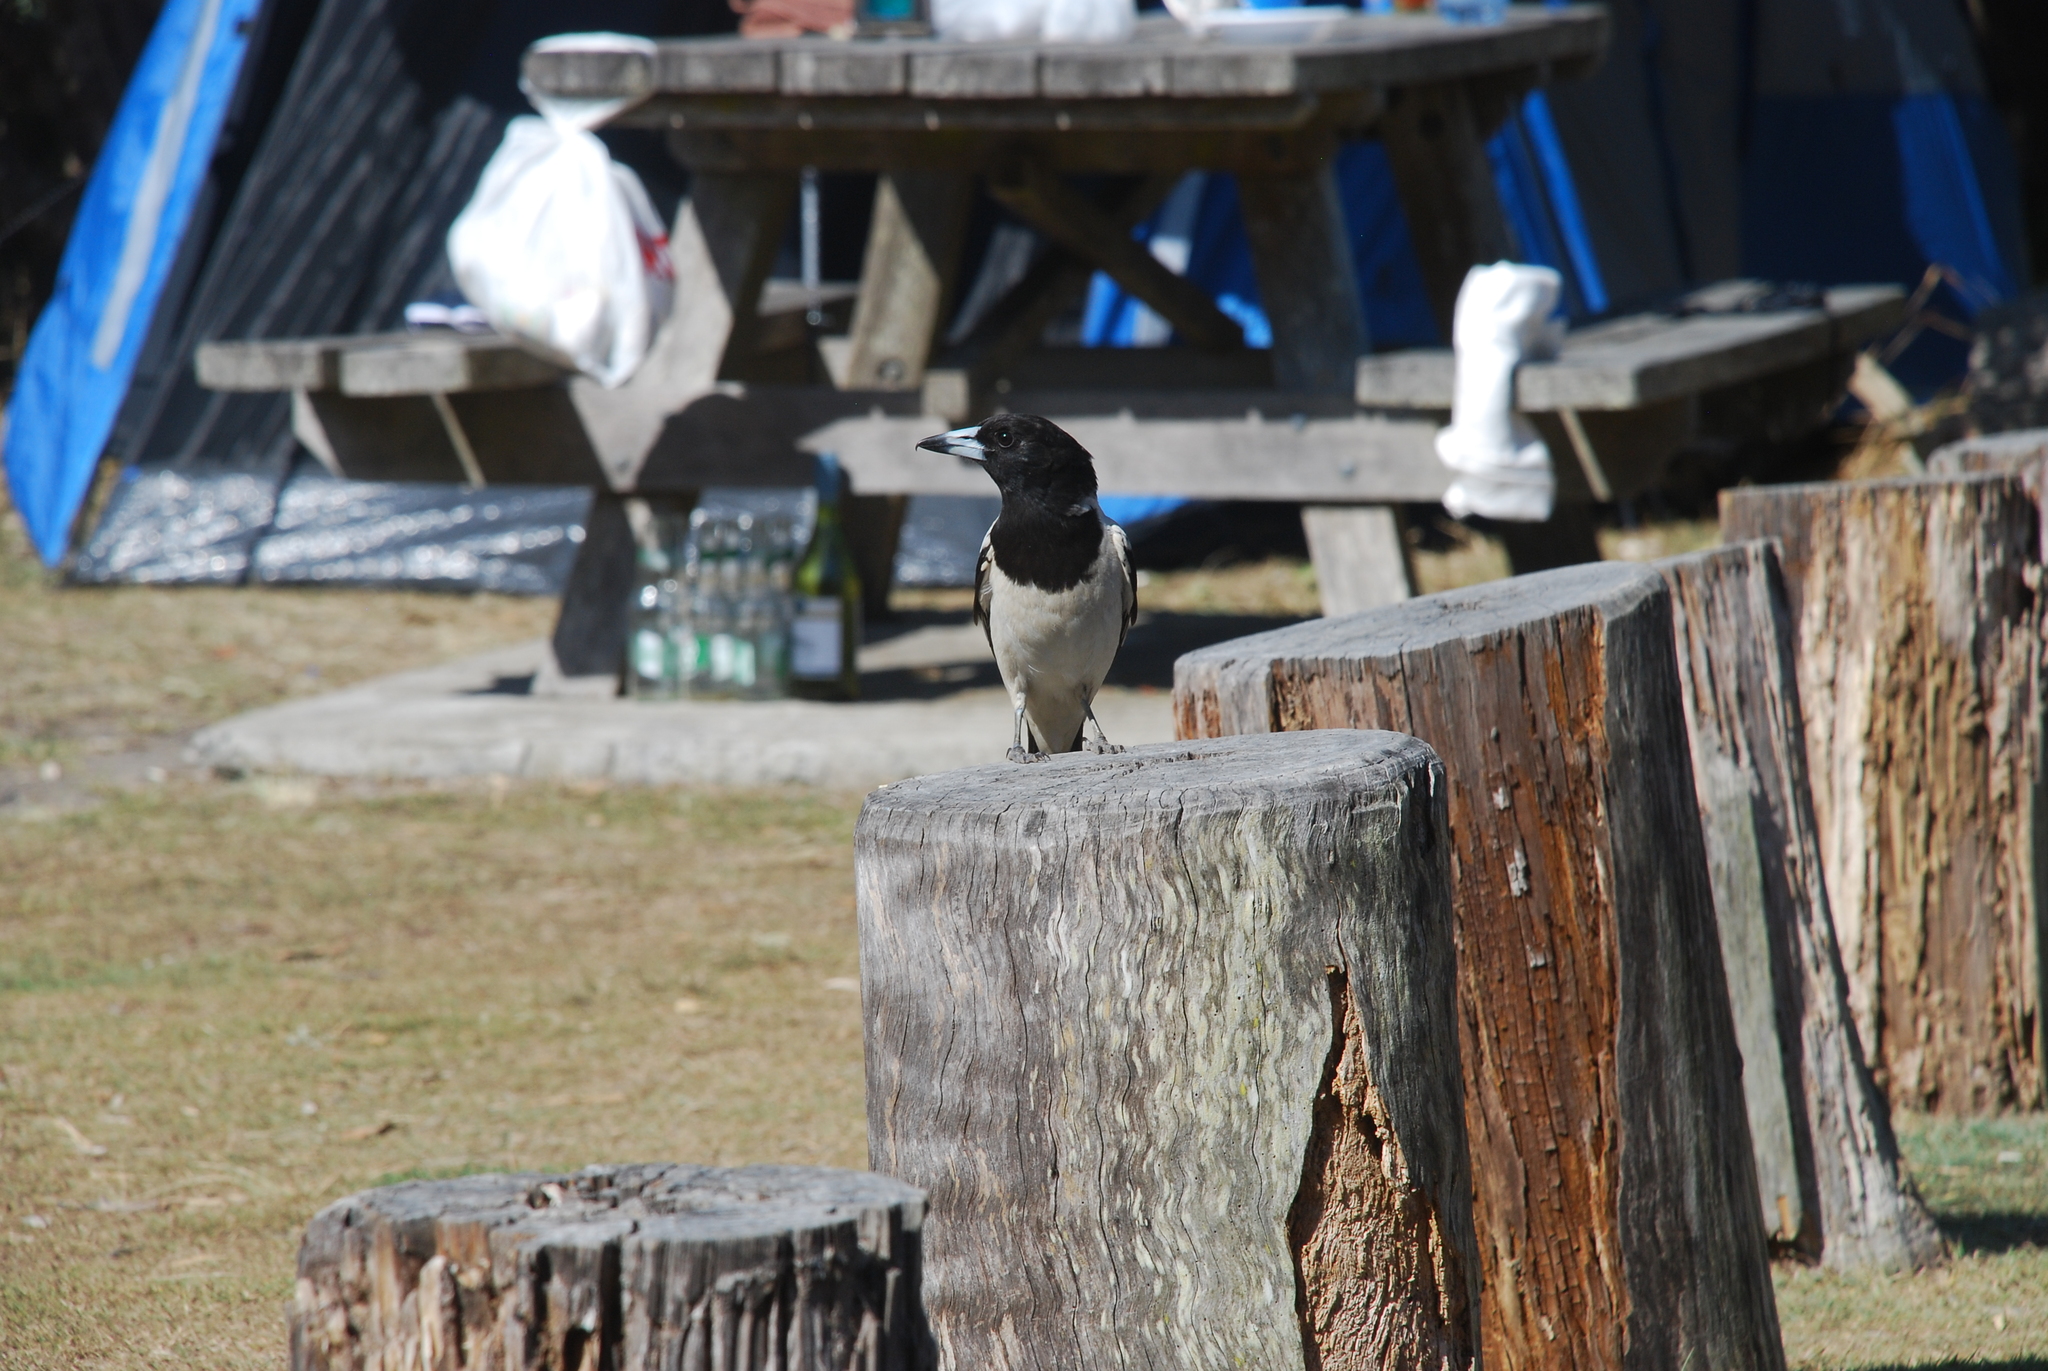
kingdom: Animalia
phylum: Chordata
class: Aves
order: Passeriformes
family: Cracticidae
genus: Cracticus
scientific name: Cracticus nigrogularis
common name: Pied butcherbird
